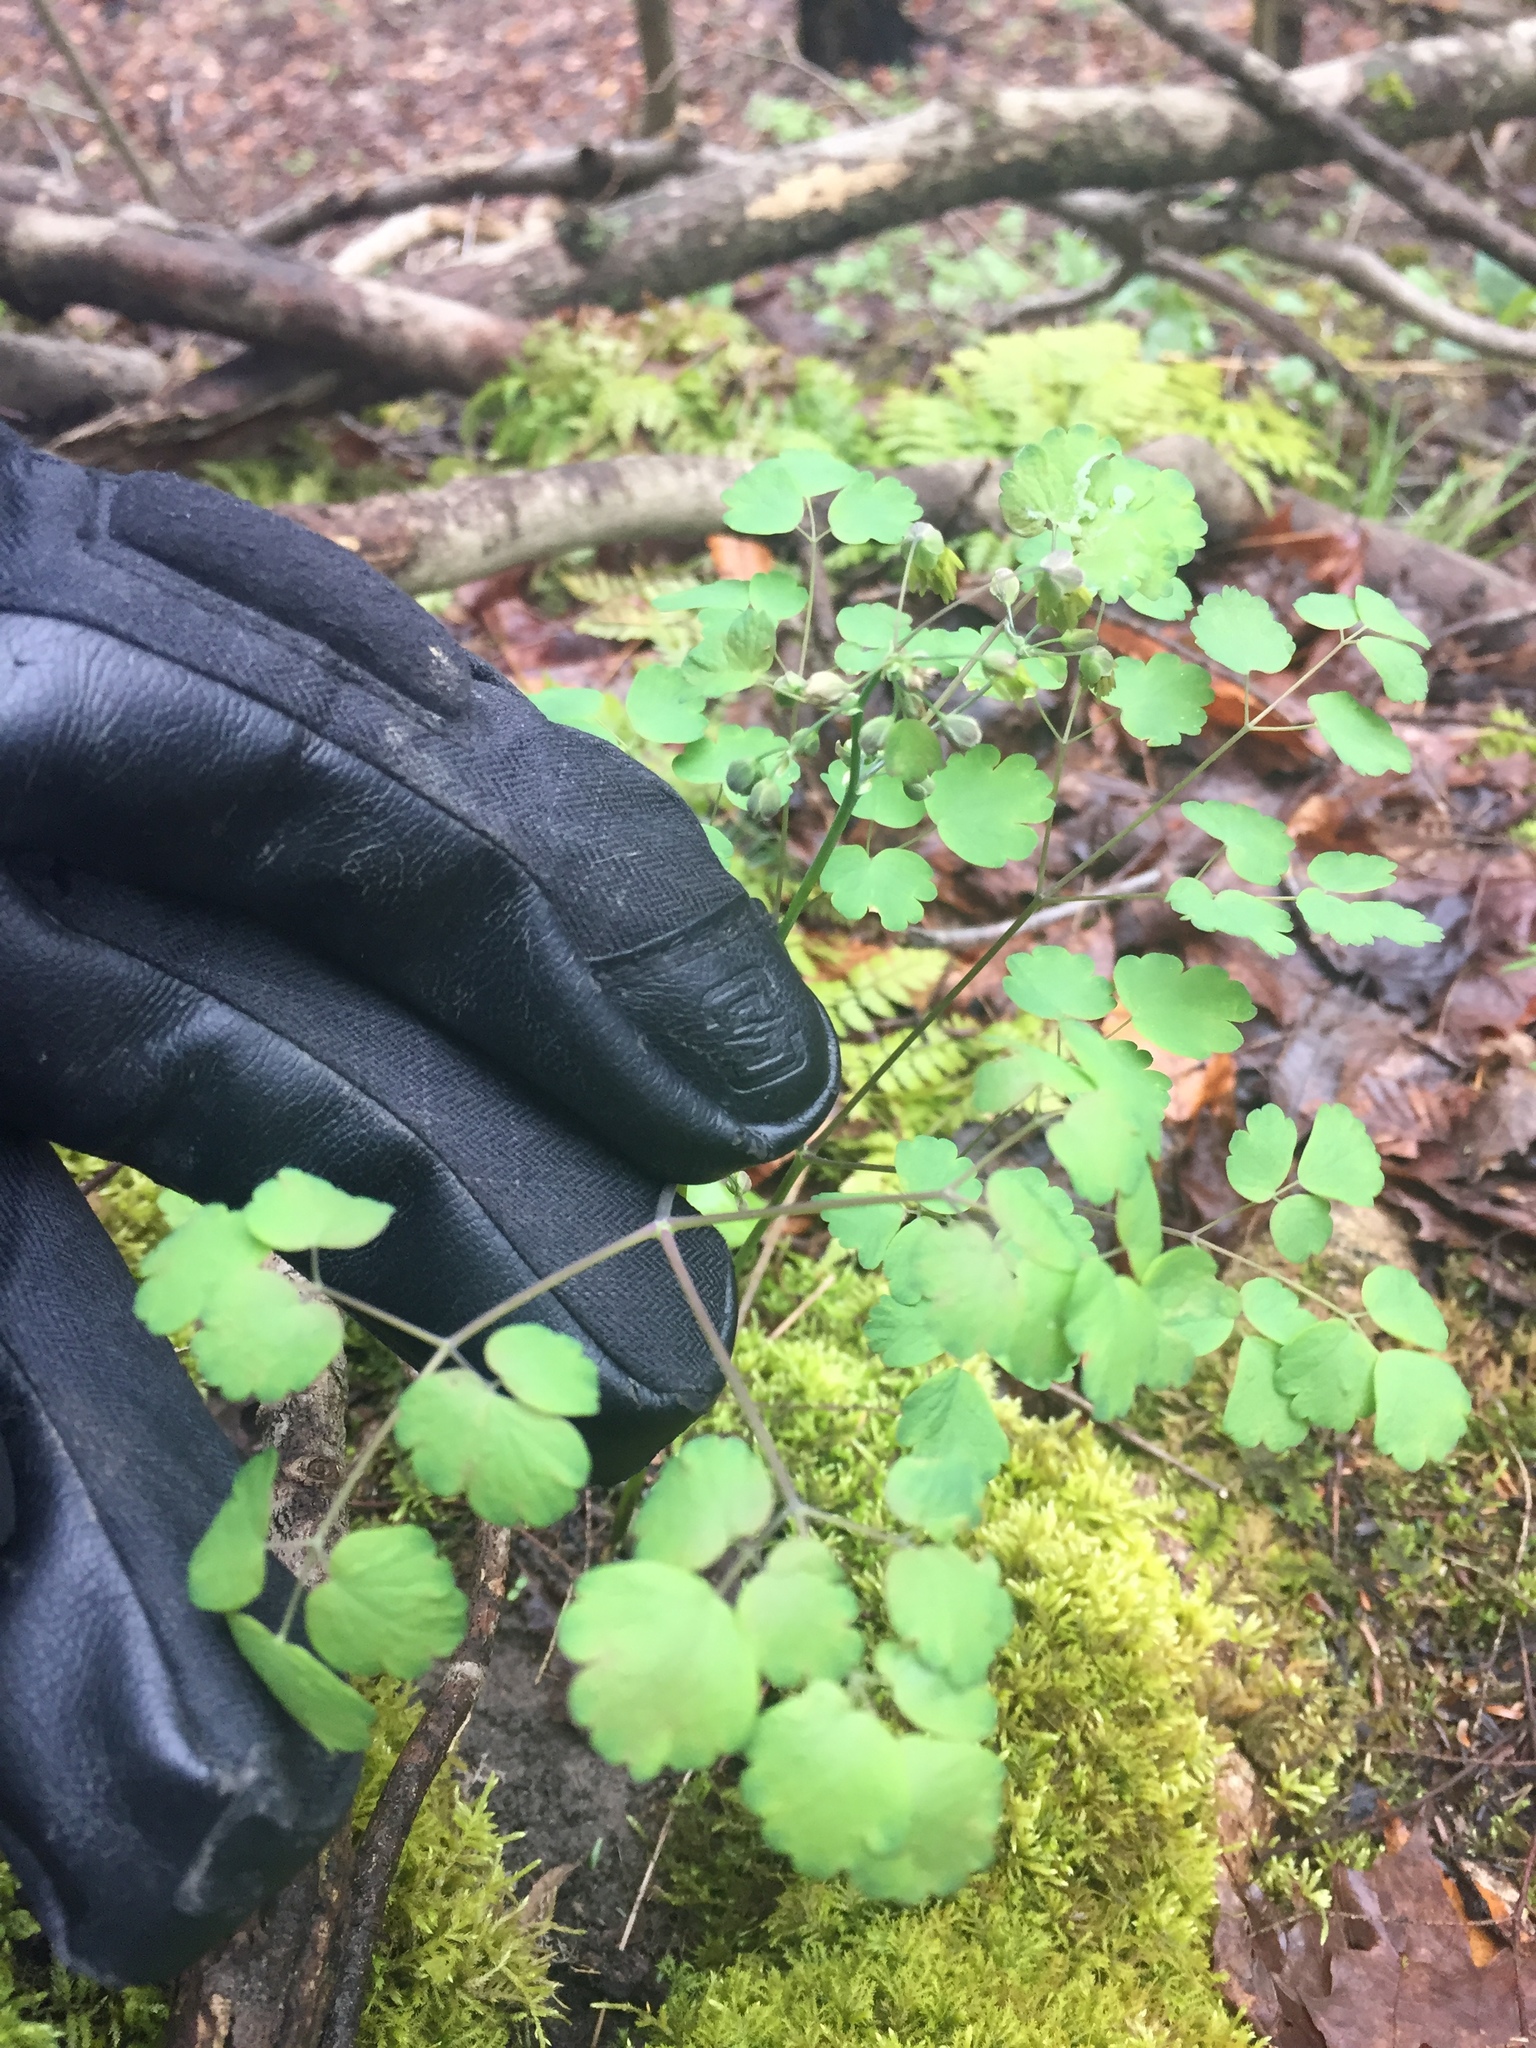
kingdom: Plantae
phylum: Tracheophyta
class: Magnoliopsida
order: Ranunculales
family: Ranunculaceae
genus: Thalictrum
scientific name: Thalictrum dioicum
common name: Early meadow-rue
